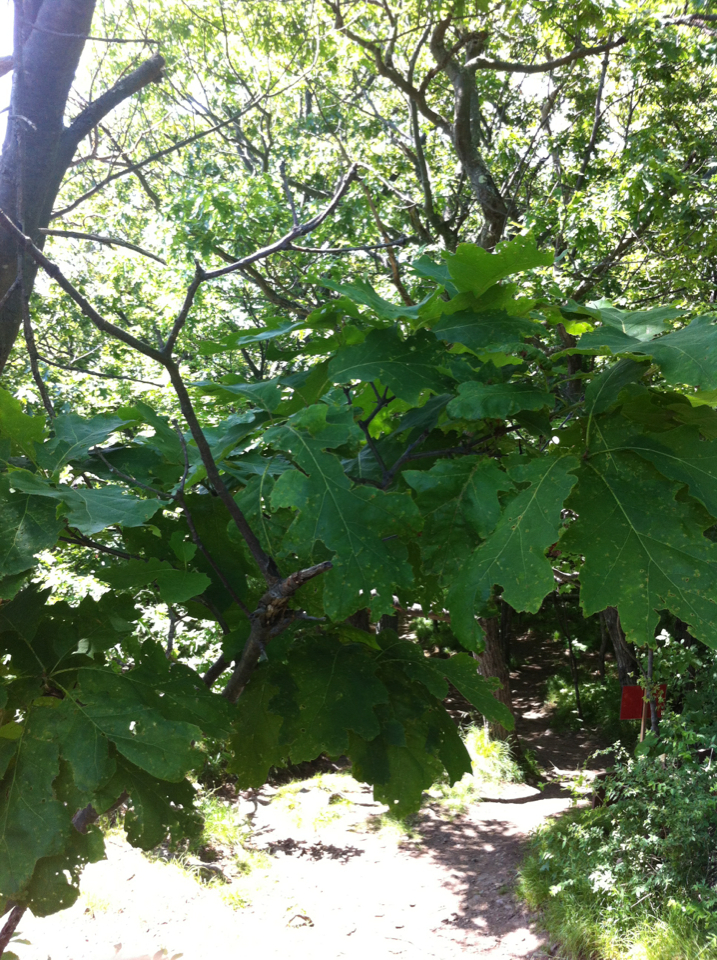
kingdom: Plantae
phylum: Tracheophyta
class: Magnoliopsida
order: Fagales
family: Fagaceae
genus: Quercus
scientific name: Quercus rubra
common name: Red oak
